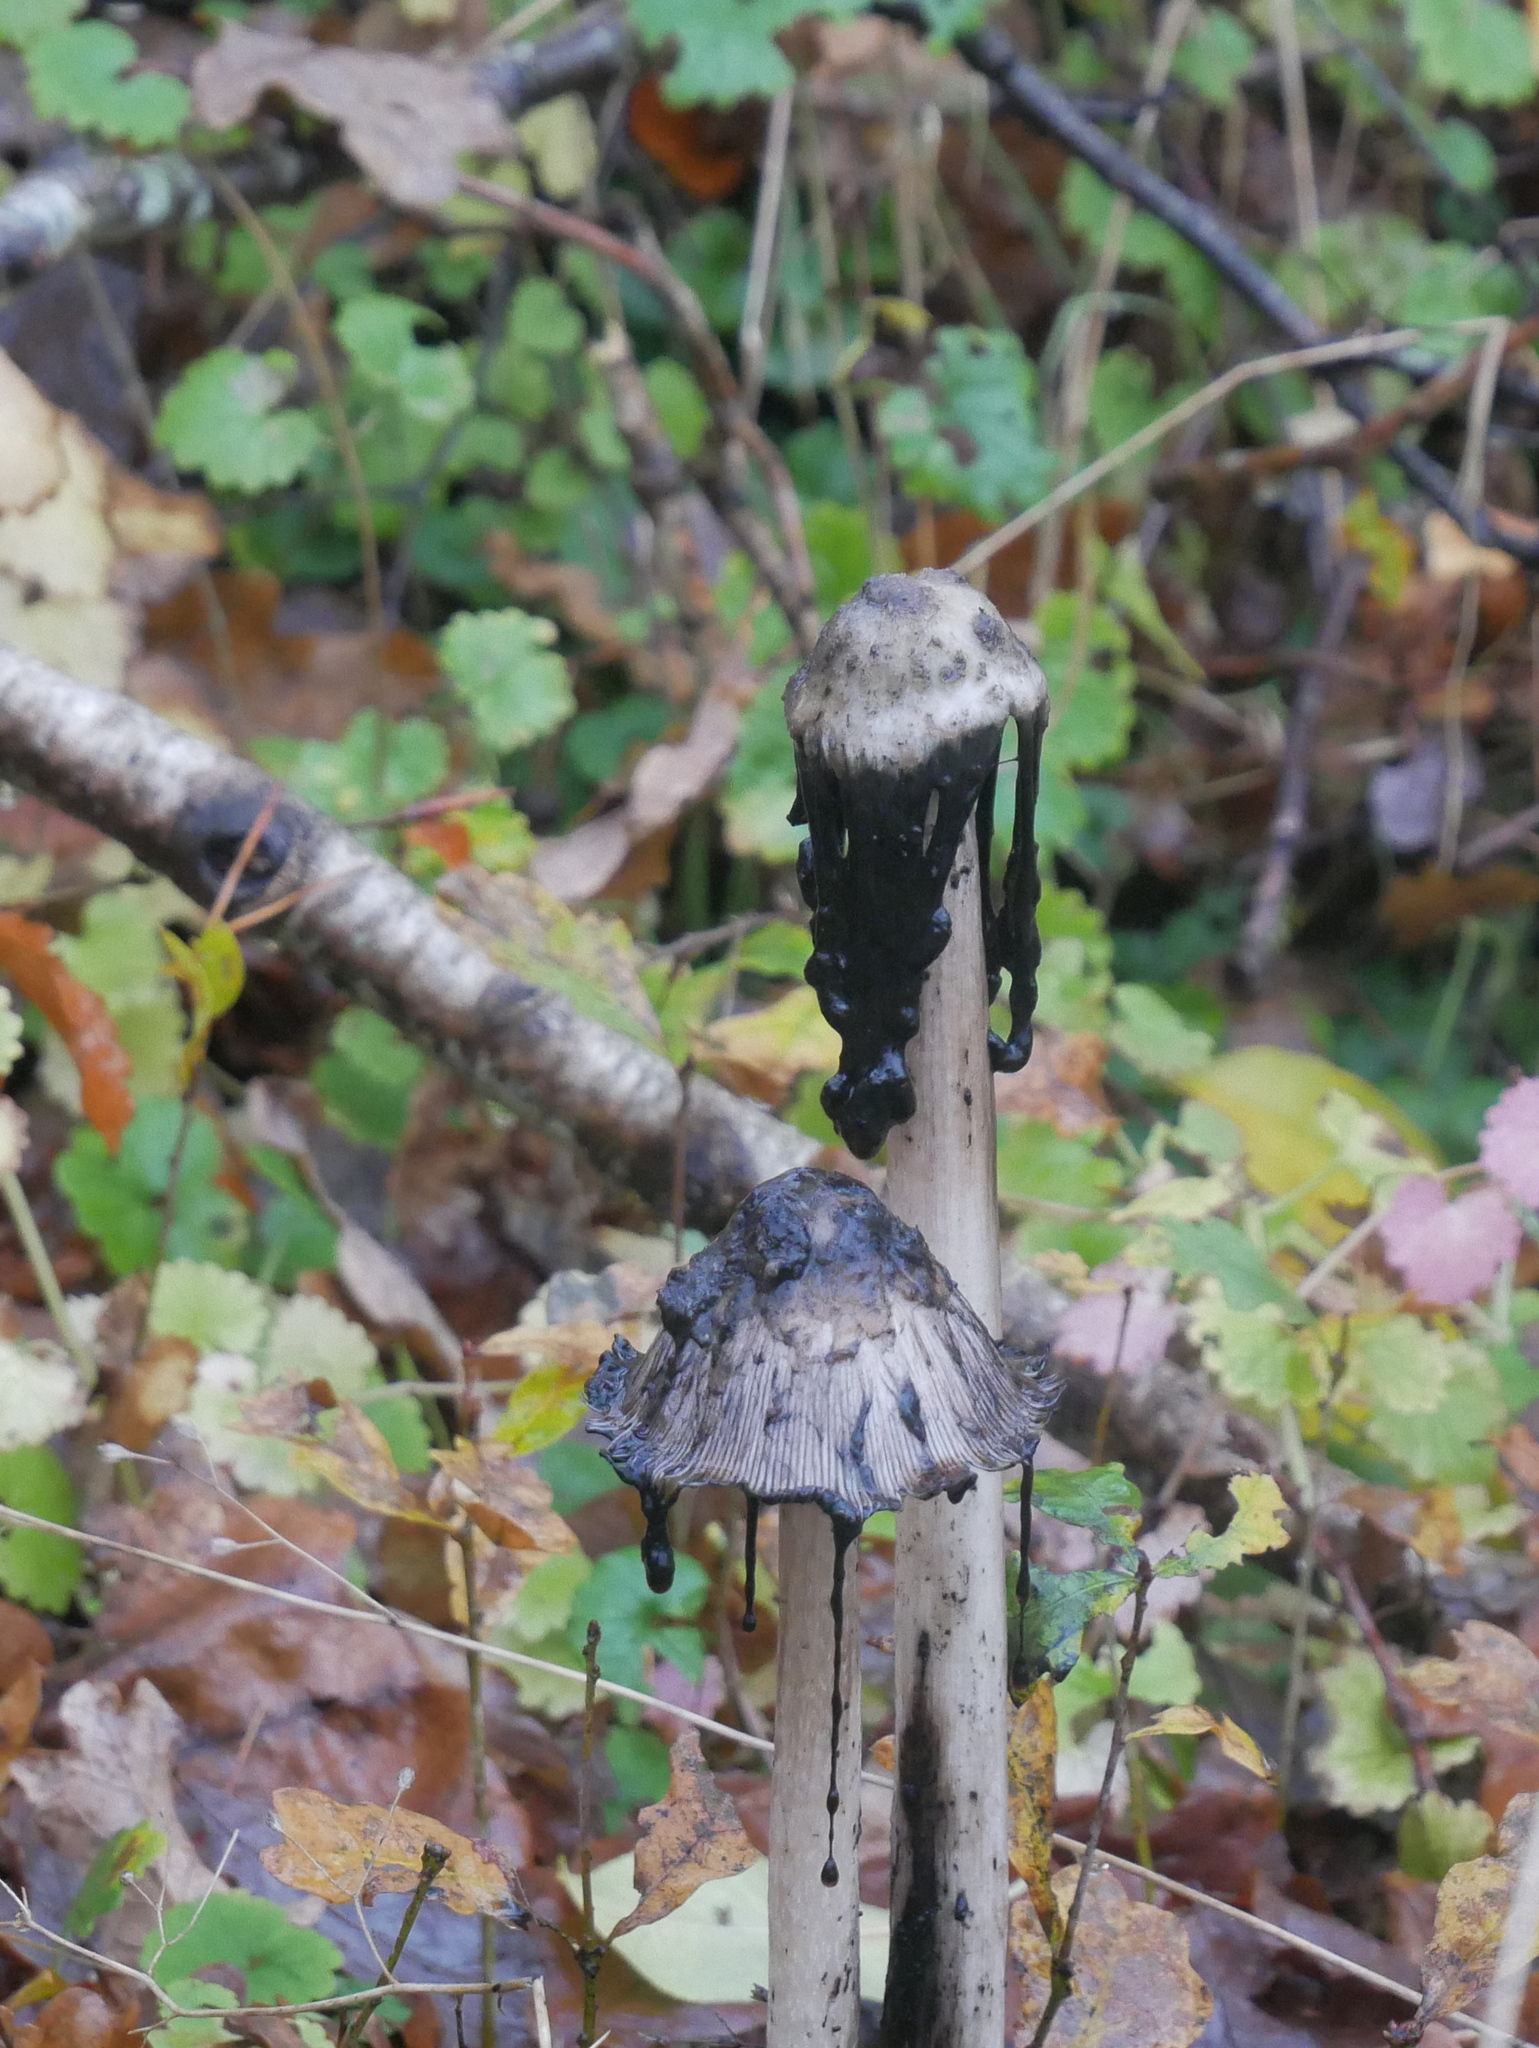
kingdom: Fungi
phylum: Basidiomycota
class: Agaricomycetes
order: Agaricales
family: Agaricaceae
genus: Coprinus
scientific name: Coprinus comatus
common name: Lawyer's wig
